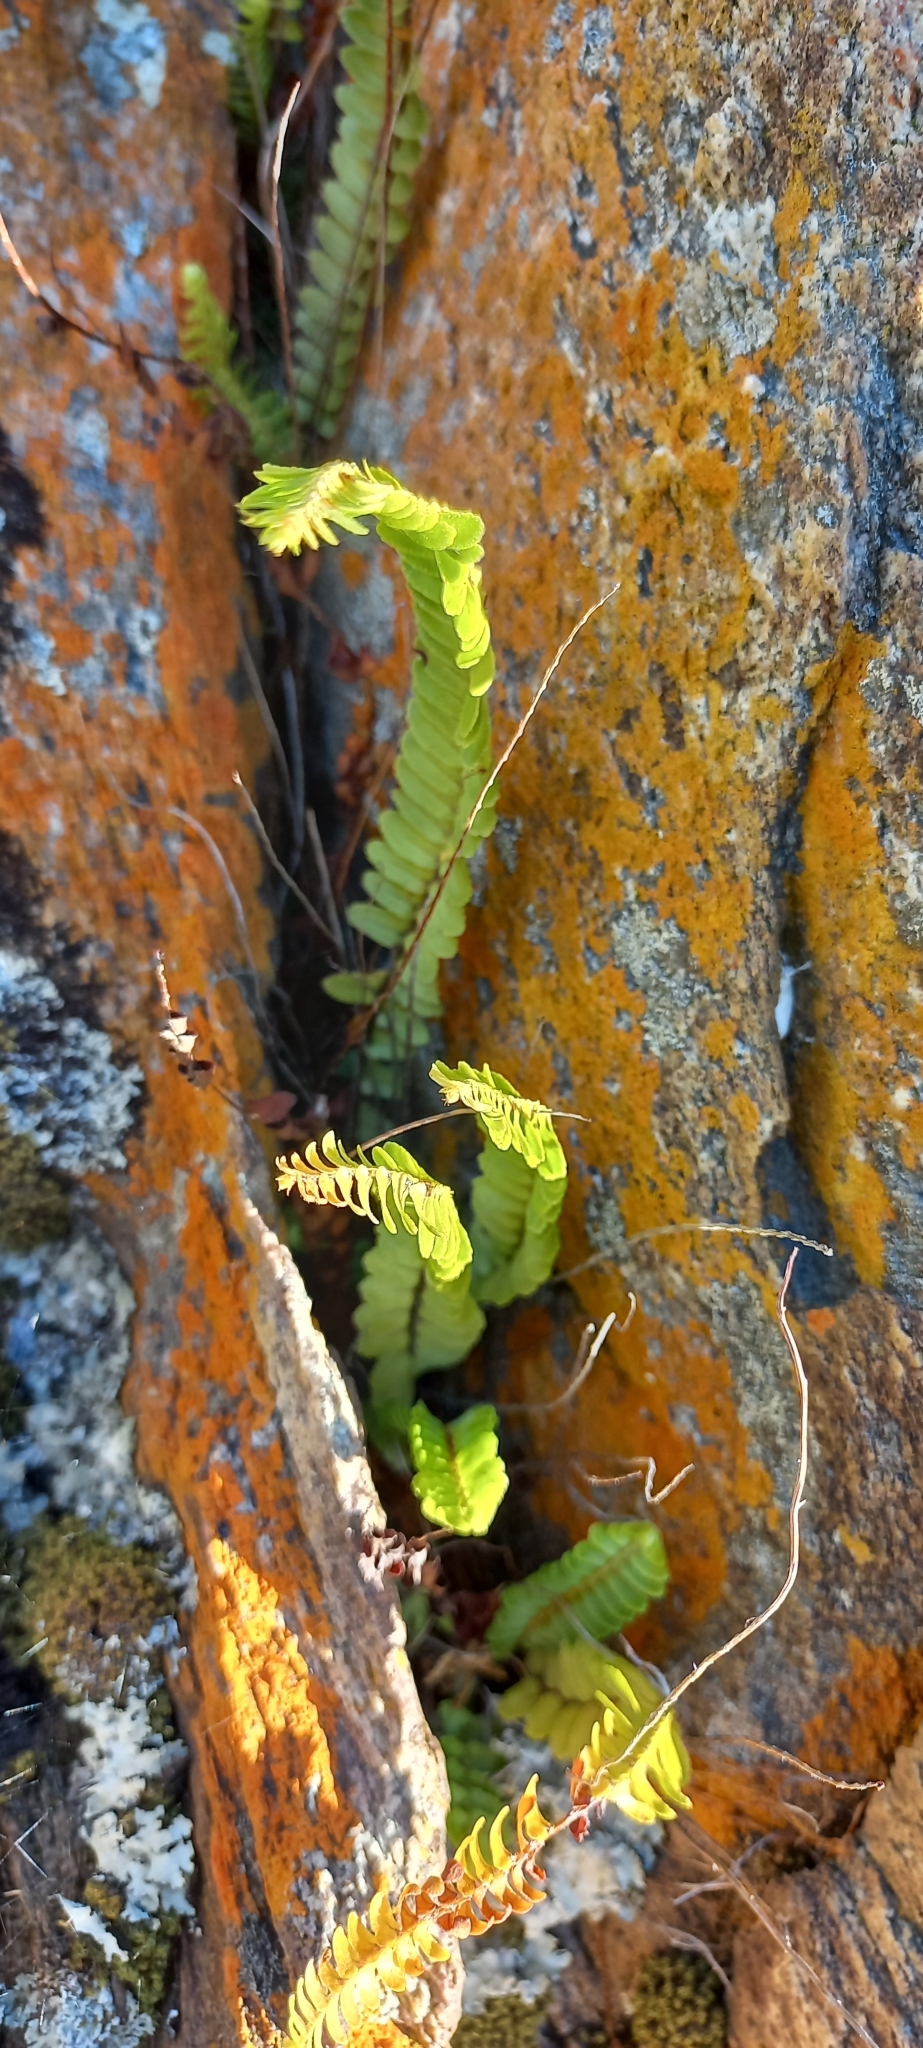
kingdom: Plantae
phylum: Tracheophyta
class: Polypodiopsida
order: Polypodiales
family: Aspleniaceae
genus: Asplenium
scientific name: Asplenium cordatum
